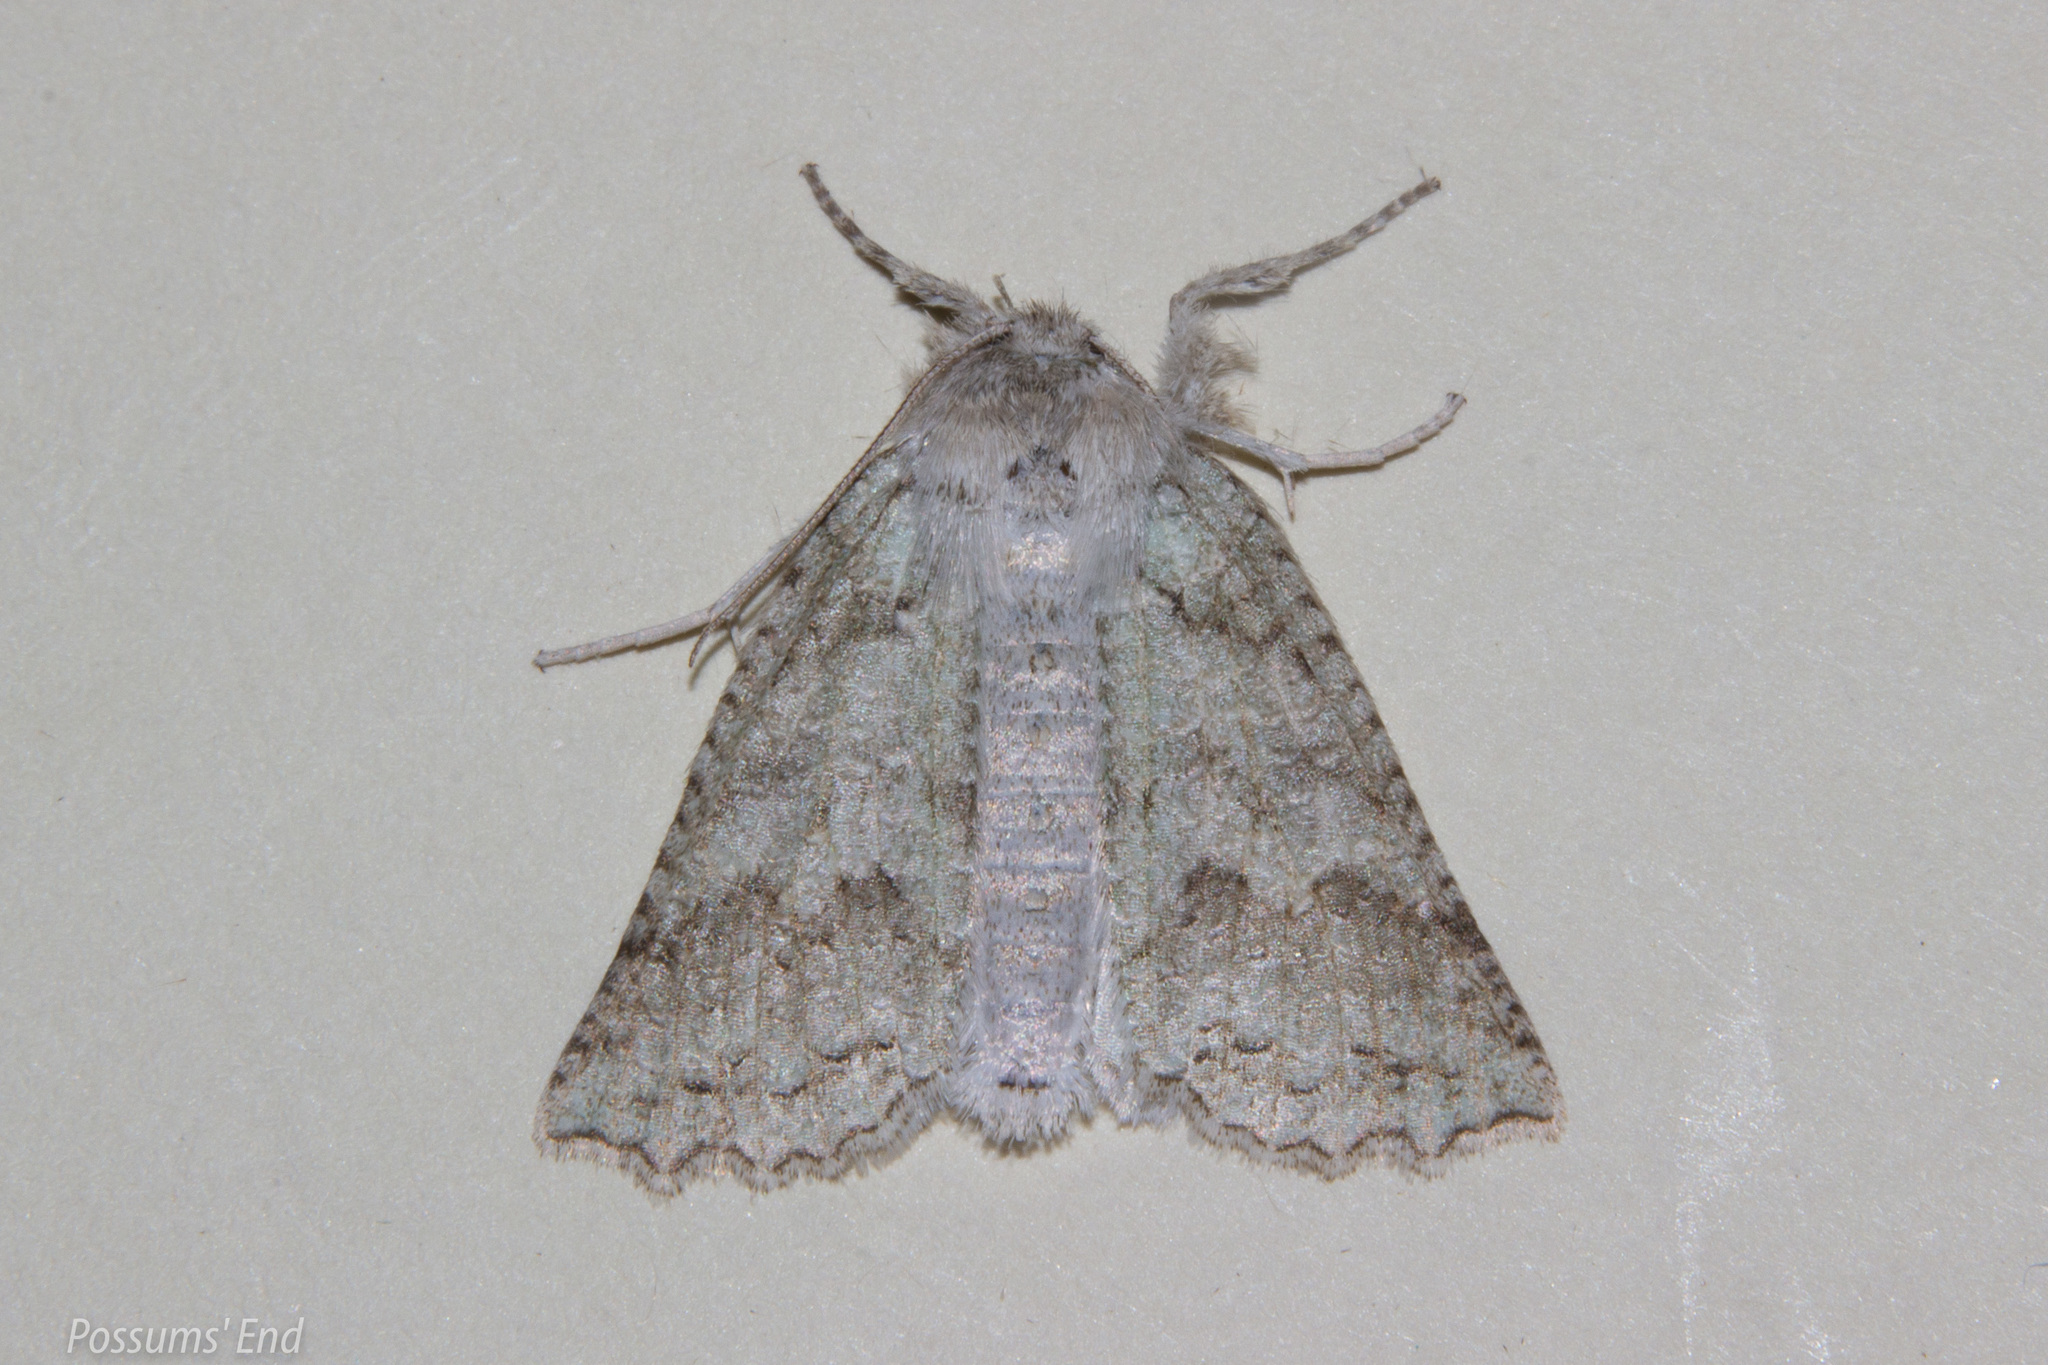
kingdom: Animalia
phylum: Arthropoda
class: Insecta
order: Lepidoptera
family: Geometridae
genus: Declana
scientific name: Declana niveata
